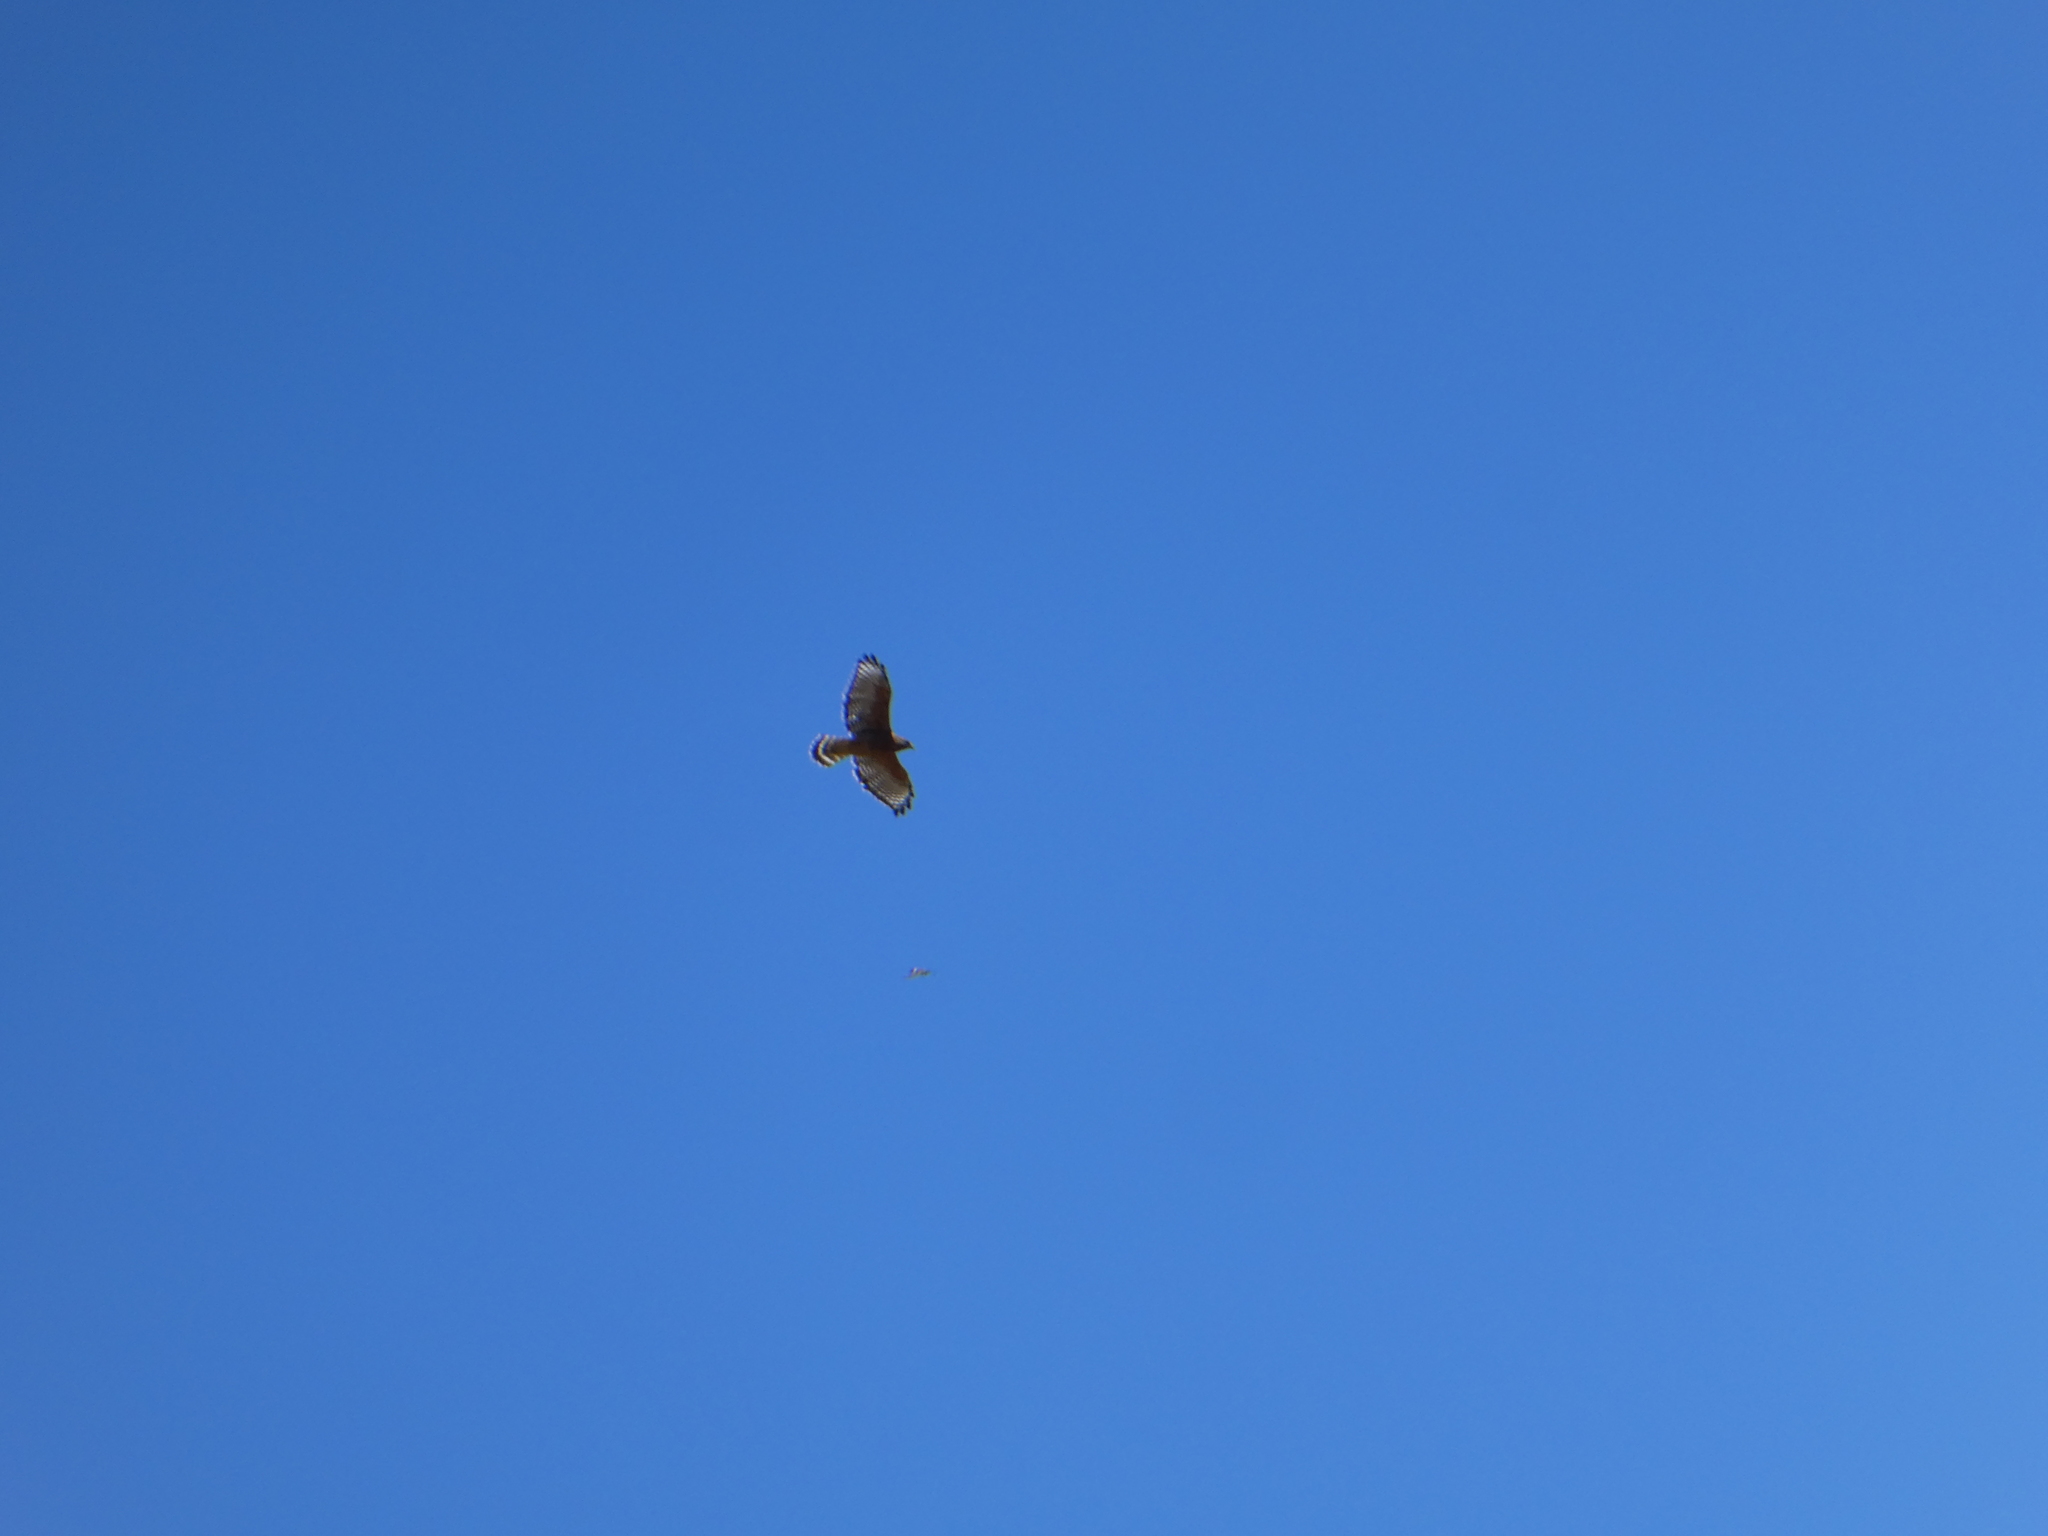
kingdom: Animalia
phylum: Chordata
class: Aves
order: Accipitriformes
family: Accipitridae
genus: Buteo
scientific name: Buteo lineatus
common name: Red-shouldered hawk
